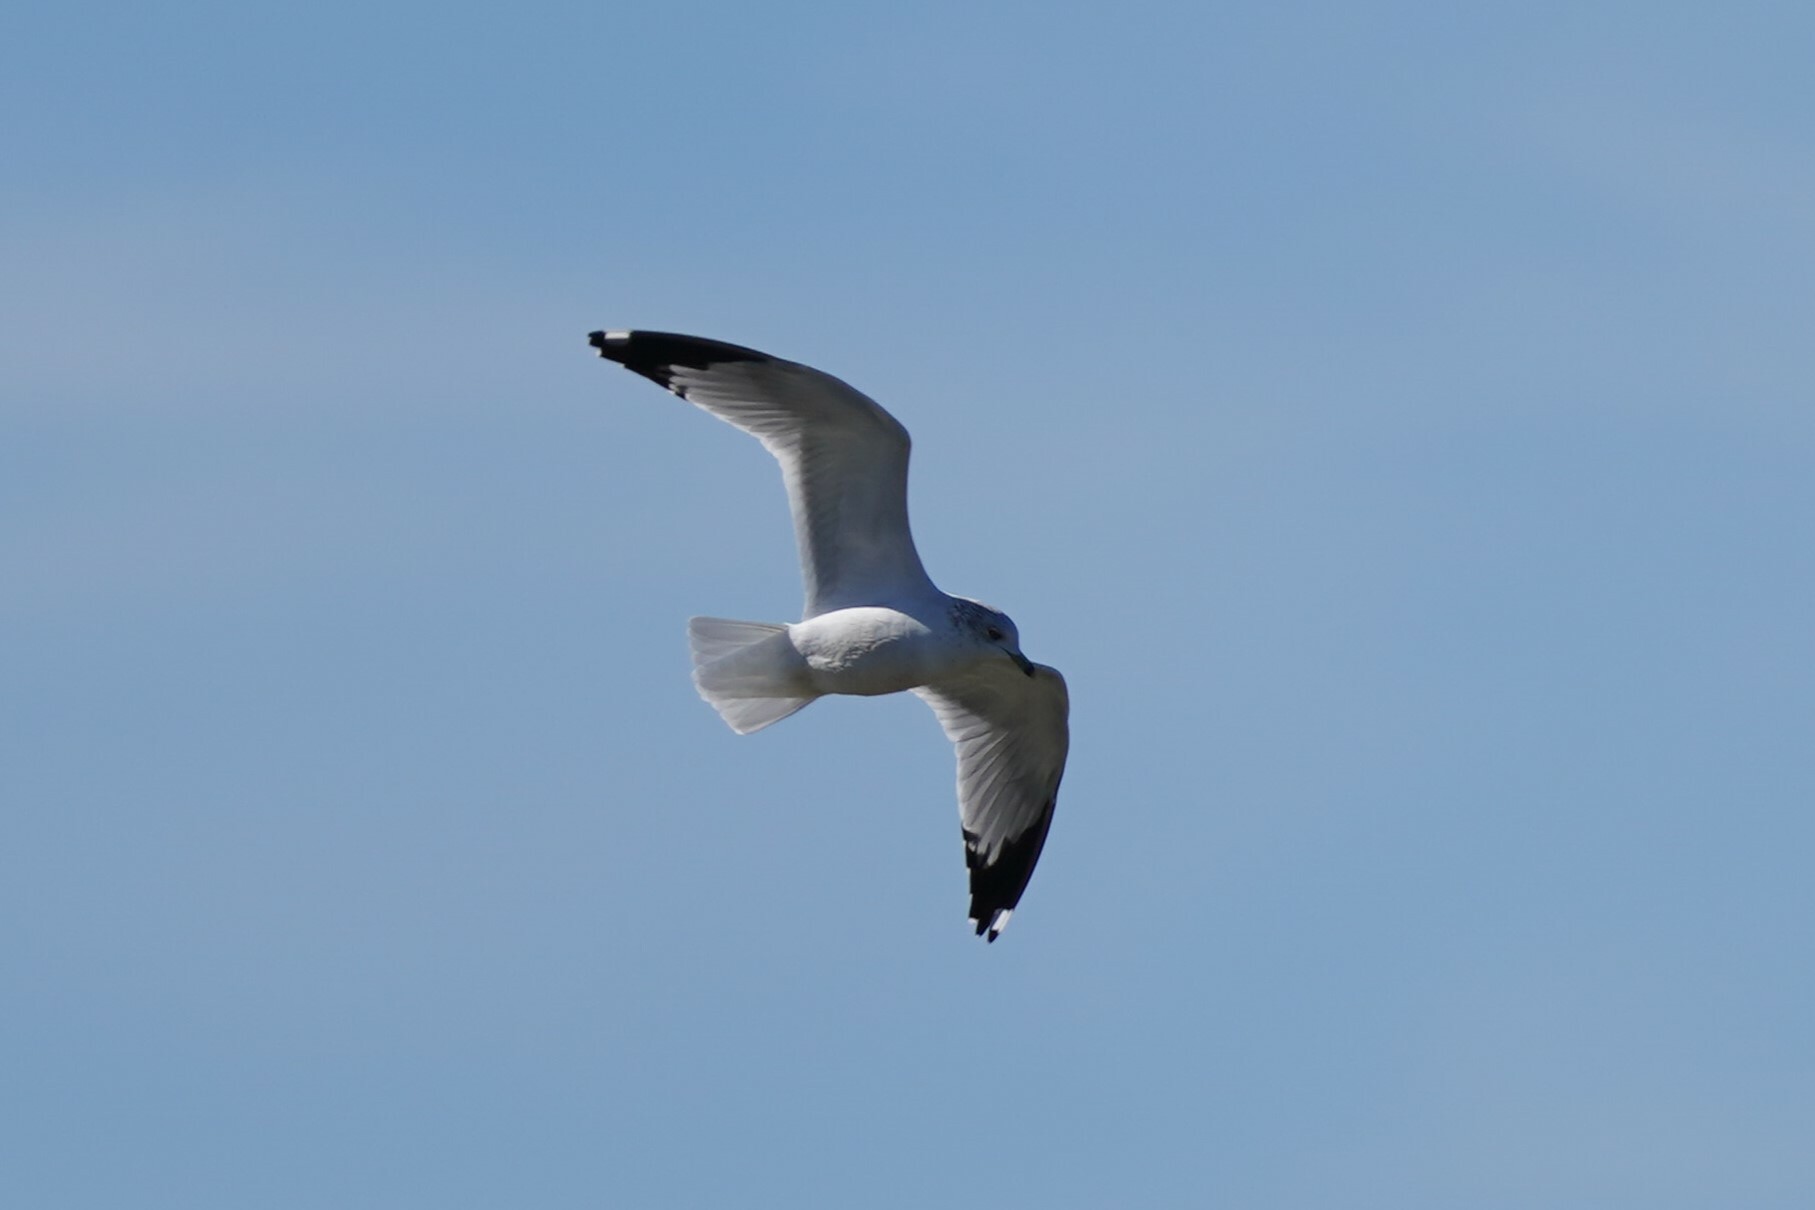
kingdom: Animalia
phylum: Chordata
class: Aves
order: Charadriiformes
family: Laridae
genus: Larus
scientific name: Larus delawarensis
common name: Ring-billed gull
